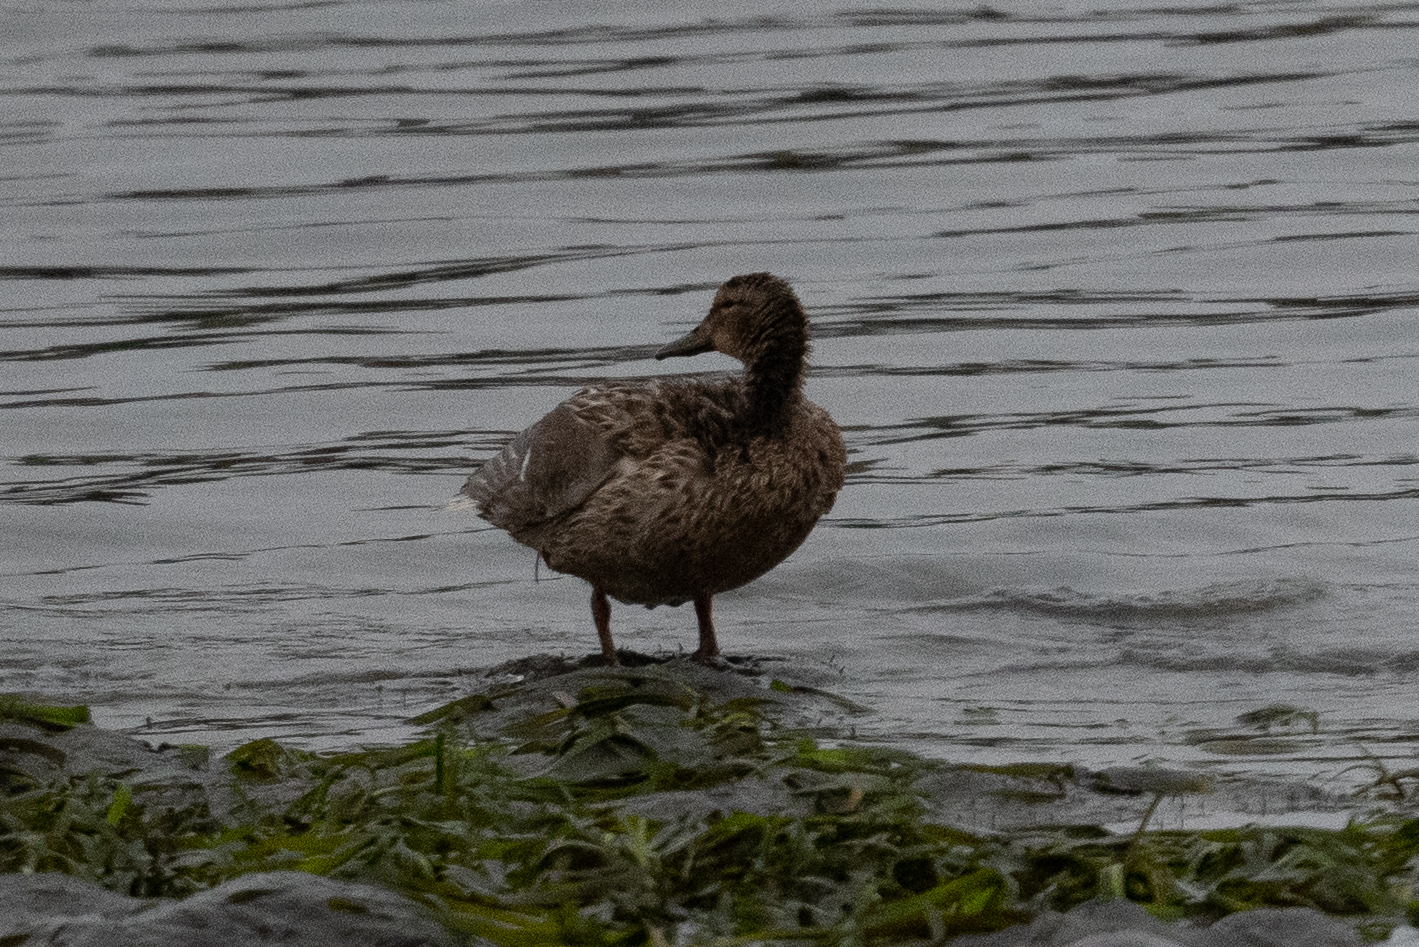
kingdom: Animalia
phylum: Chordata
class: Aves
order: Anseriformes
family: Anatidae
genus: Anas
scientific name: Anas platyrhynchos
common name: Mallard
